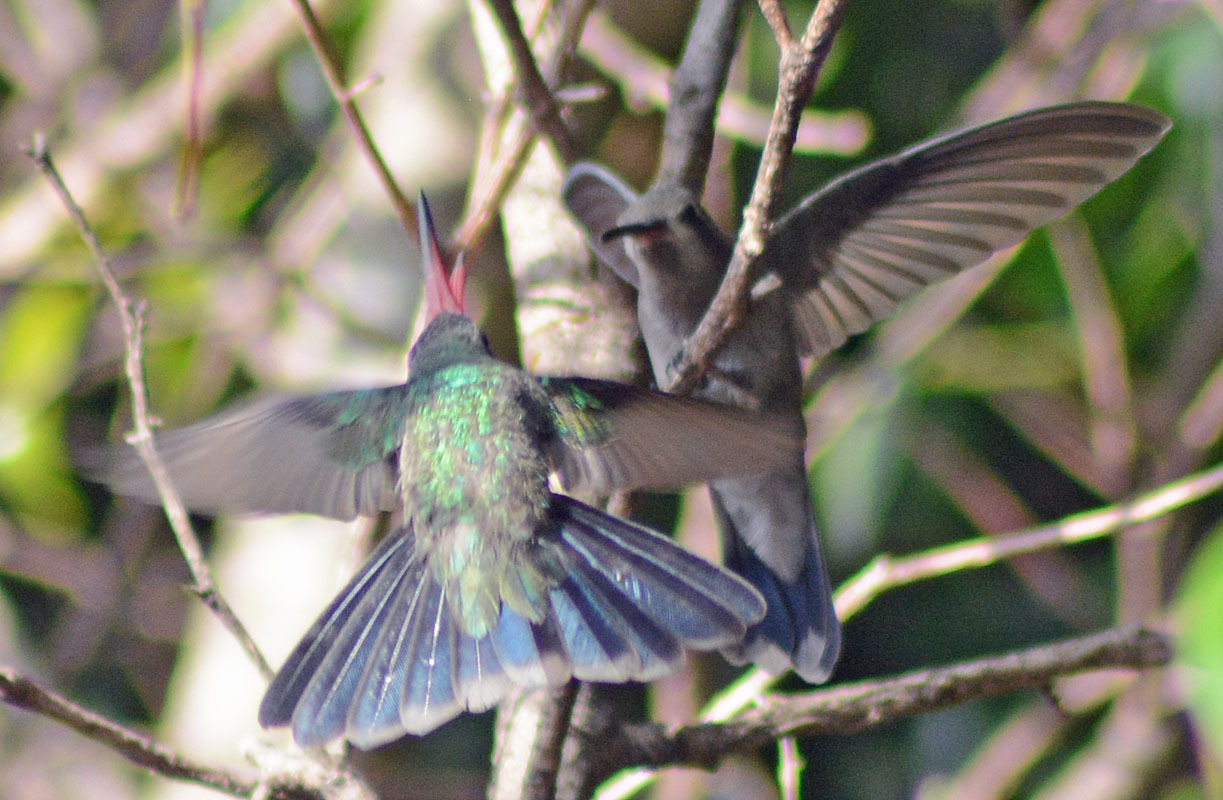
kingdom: Animalia
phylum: Chordata
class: Aves
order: Apodiformes
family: Trochilidae
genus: Cynanthus
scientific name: Cynanthus latirostris
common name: Broad-billed hummingbird
